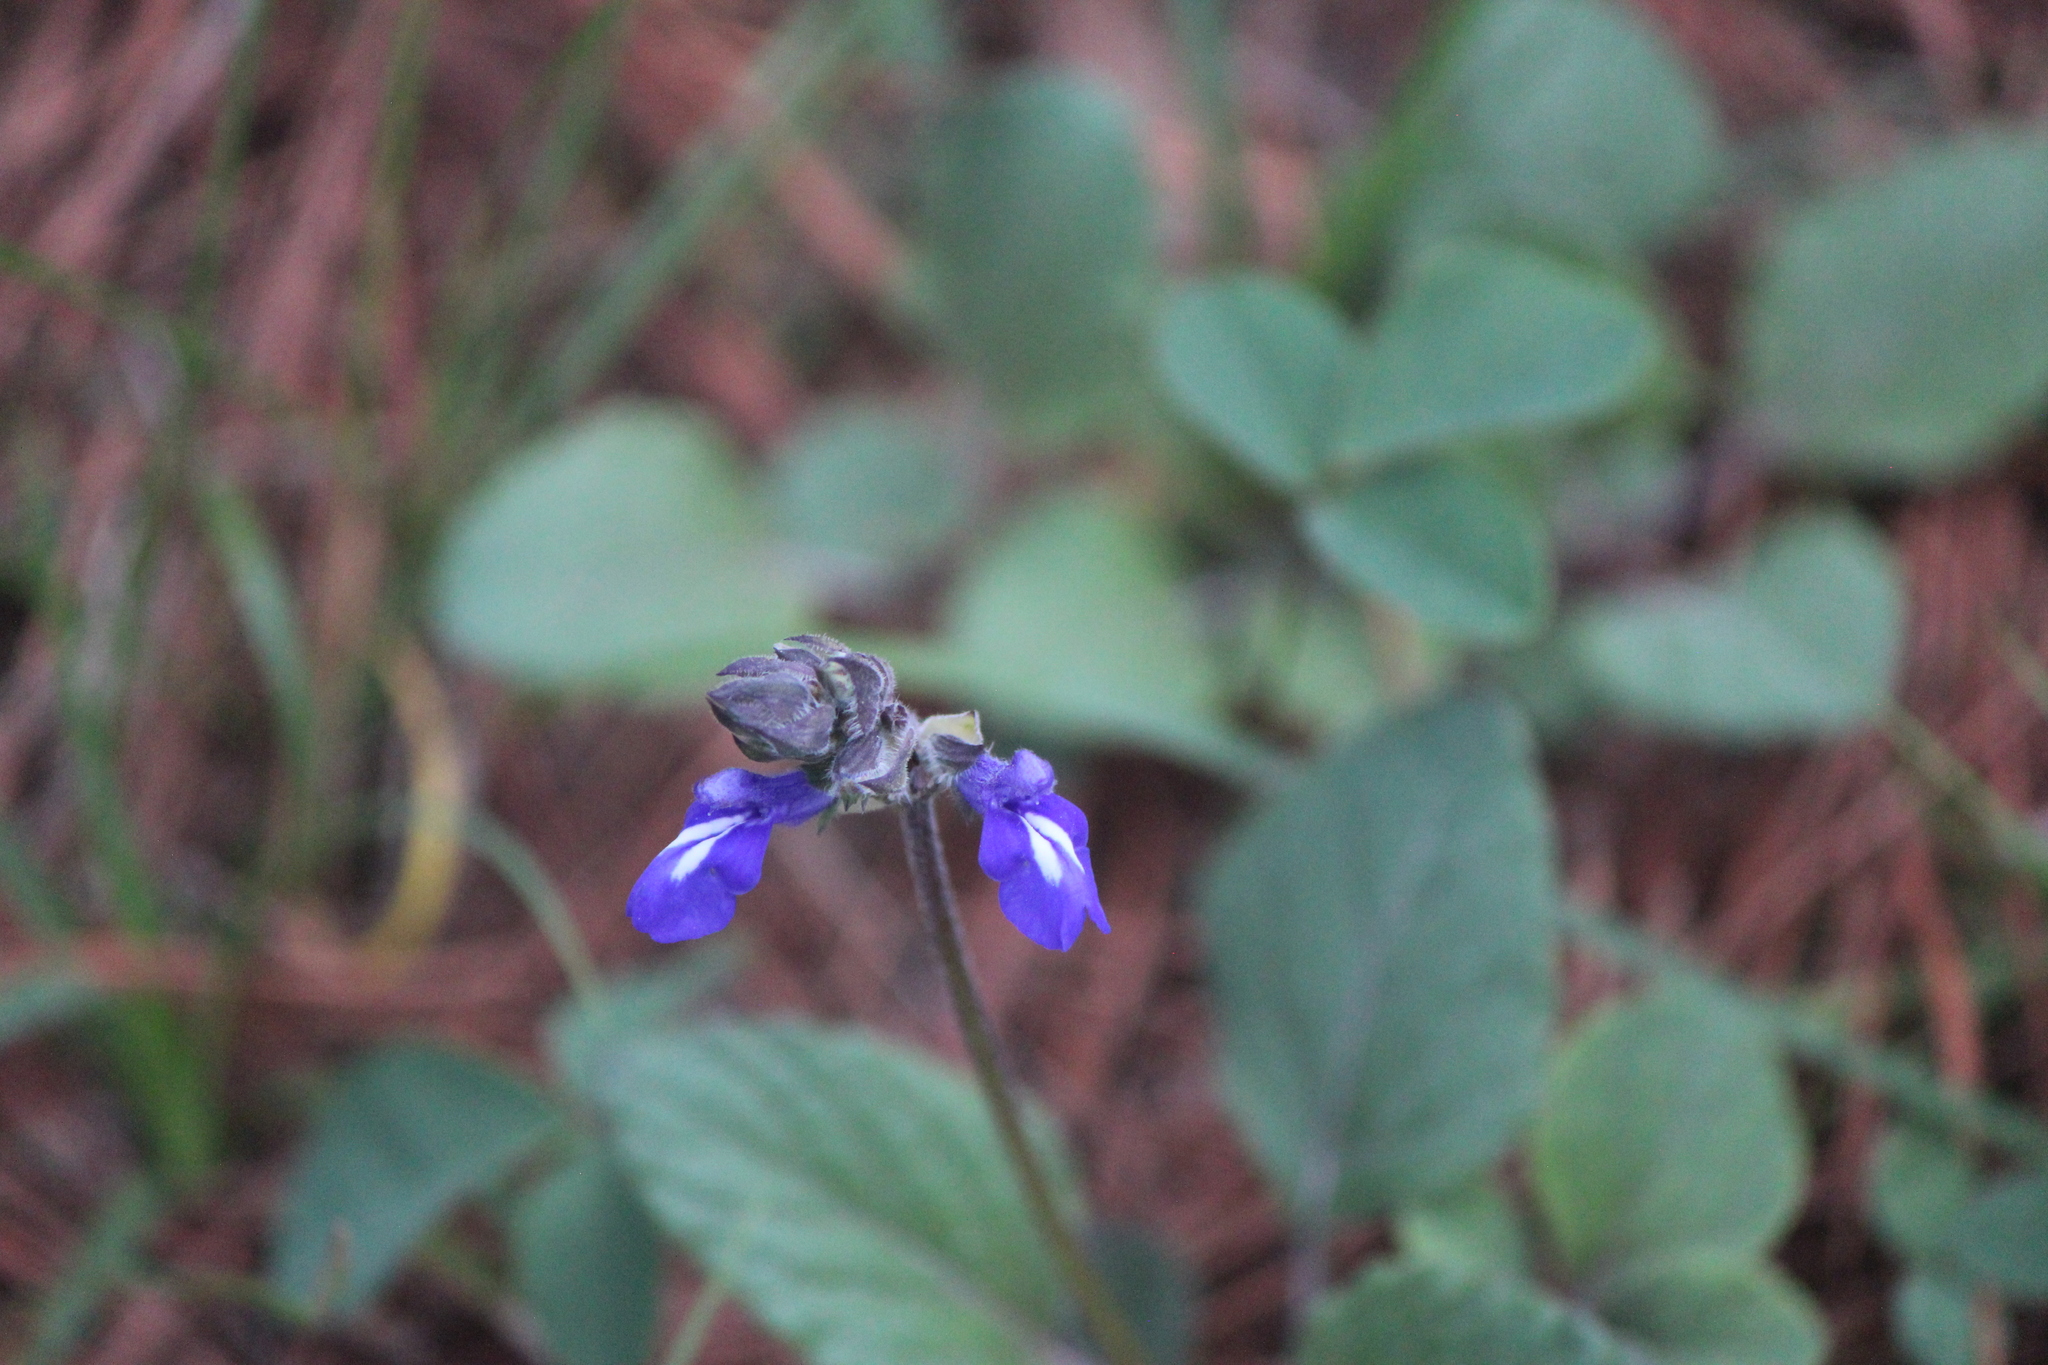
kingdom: Plantae
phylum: Tracheophyta
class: Magnoliopsida
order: Lamiales
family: Lamiaceae
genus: Salvia
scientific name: Salvia prunelloides
